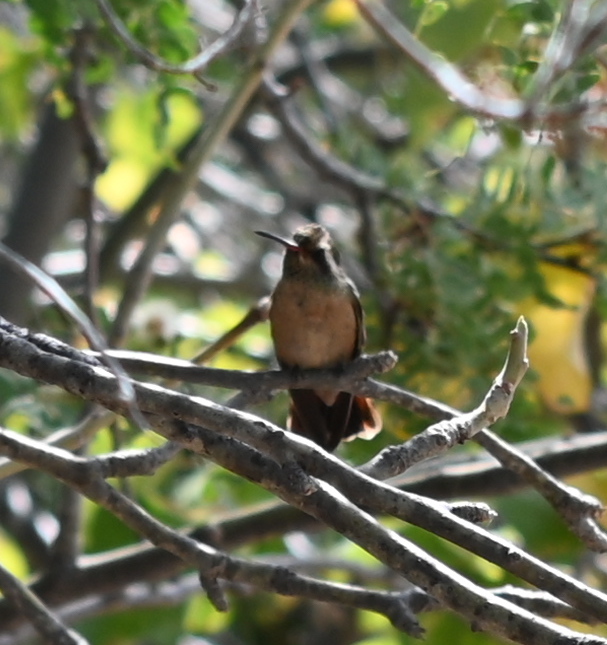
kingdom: Animalia
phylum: Chordata
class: Aves
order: Apodiformes
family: Trochilidae
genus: Basilinna
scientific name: Basilinna xantusii
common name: Xantus's hummingbird
